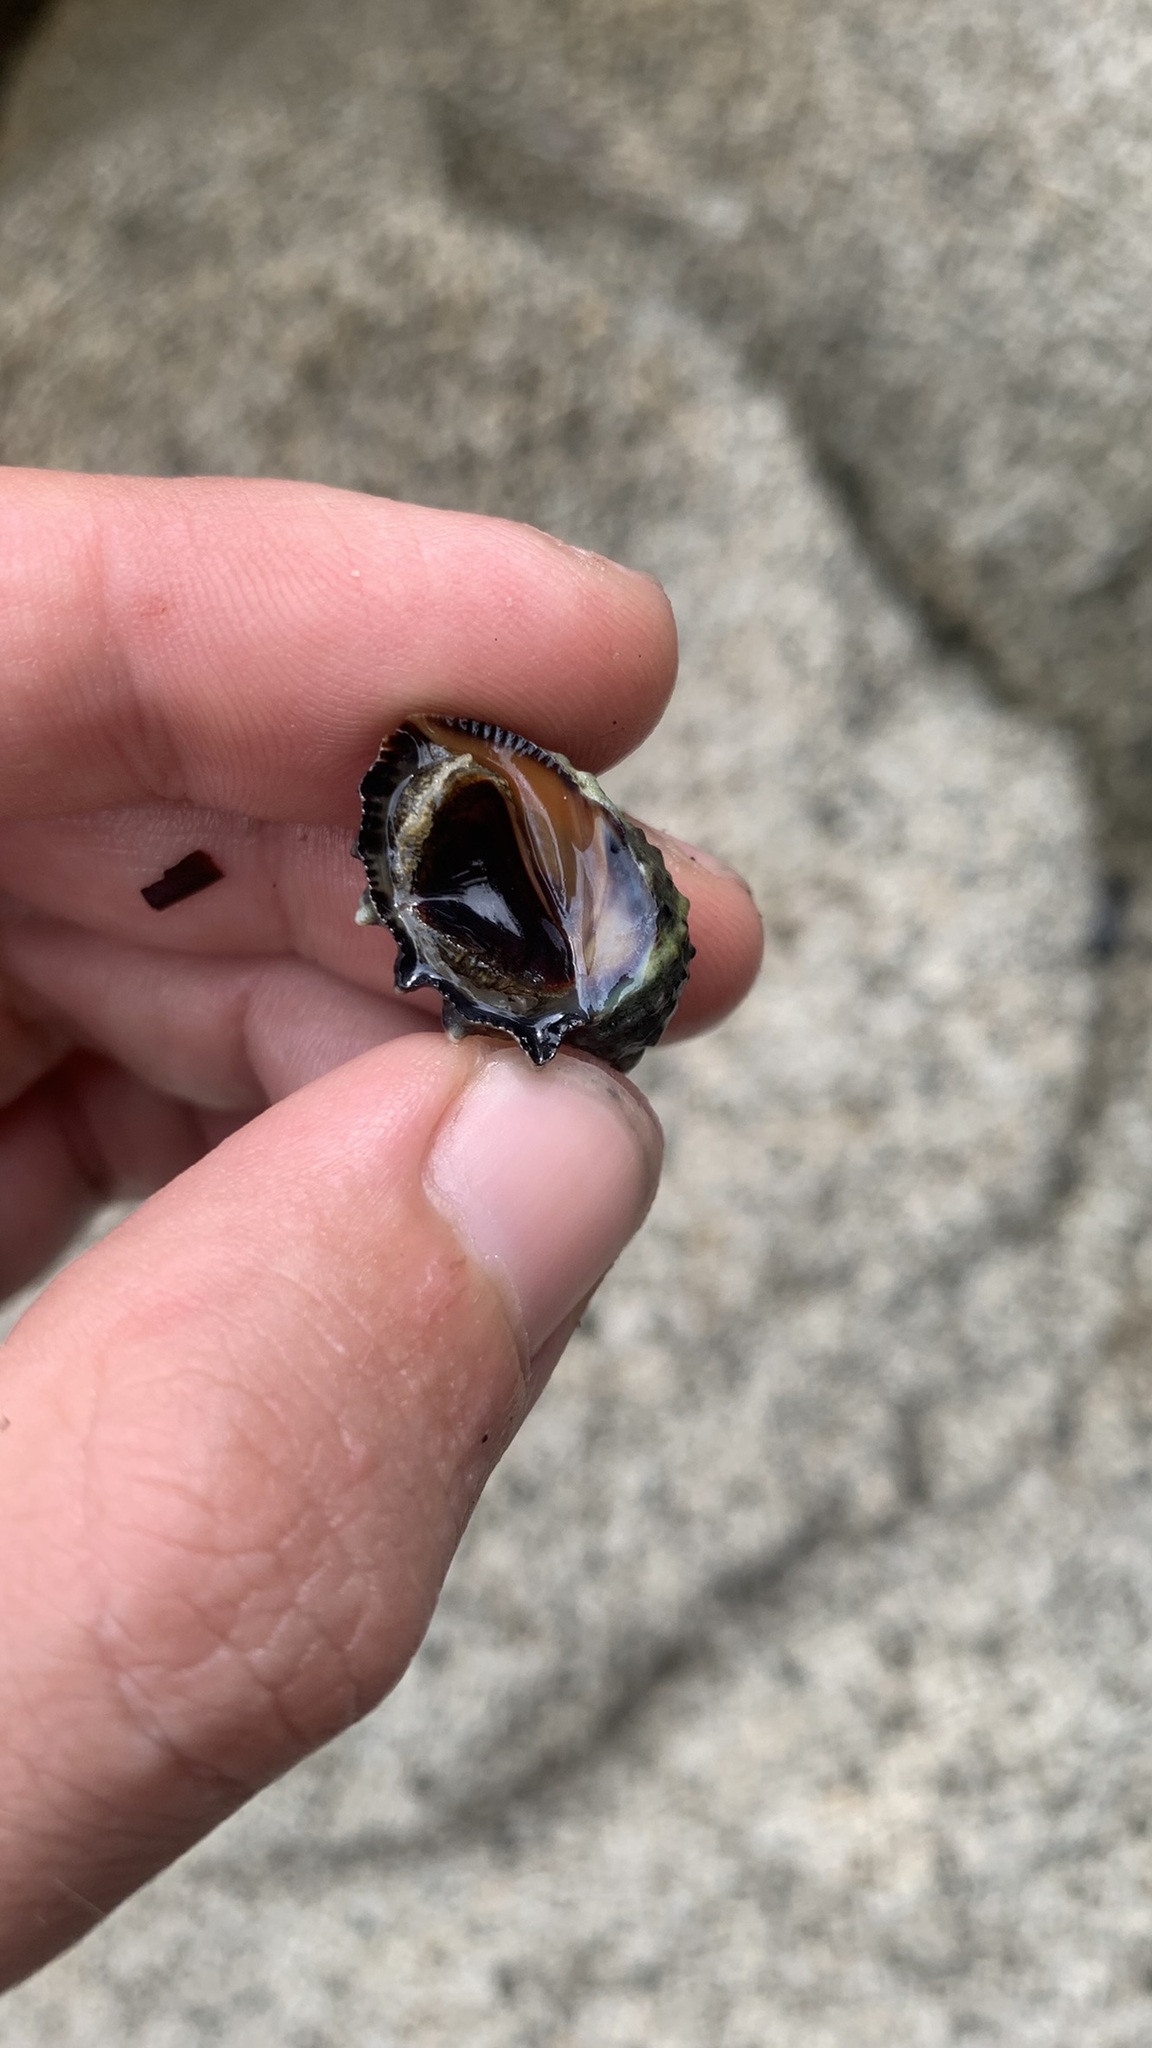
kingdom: Animalia
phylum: Mollusca
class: Gastropoda
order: Neogastropoda
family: Muricidae
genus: Plicopurpura
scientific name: Plicopurpura patula
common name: Wide-mouthed dye shell
